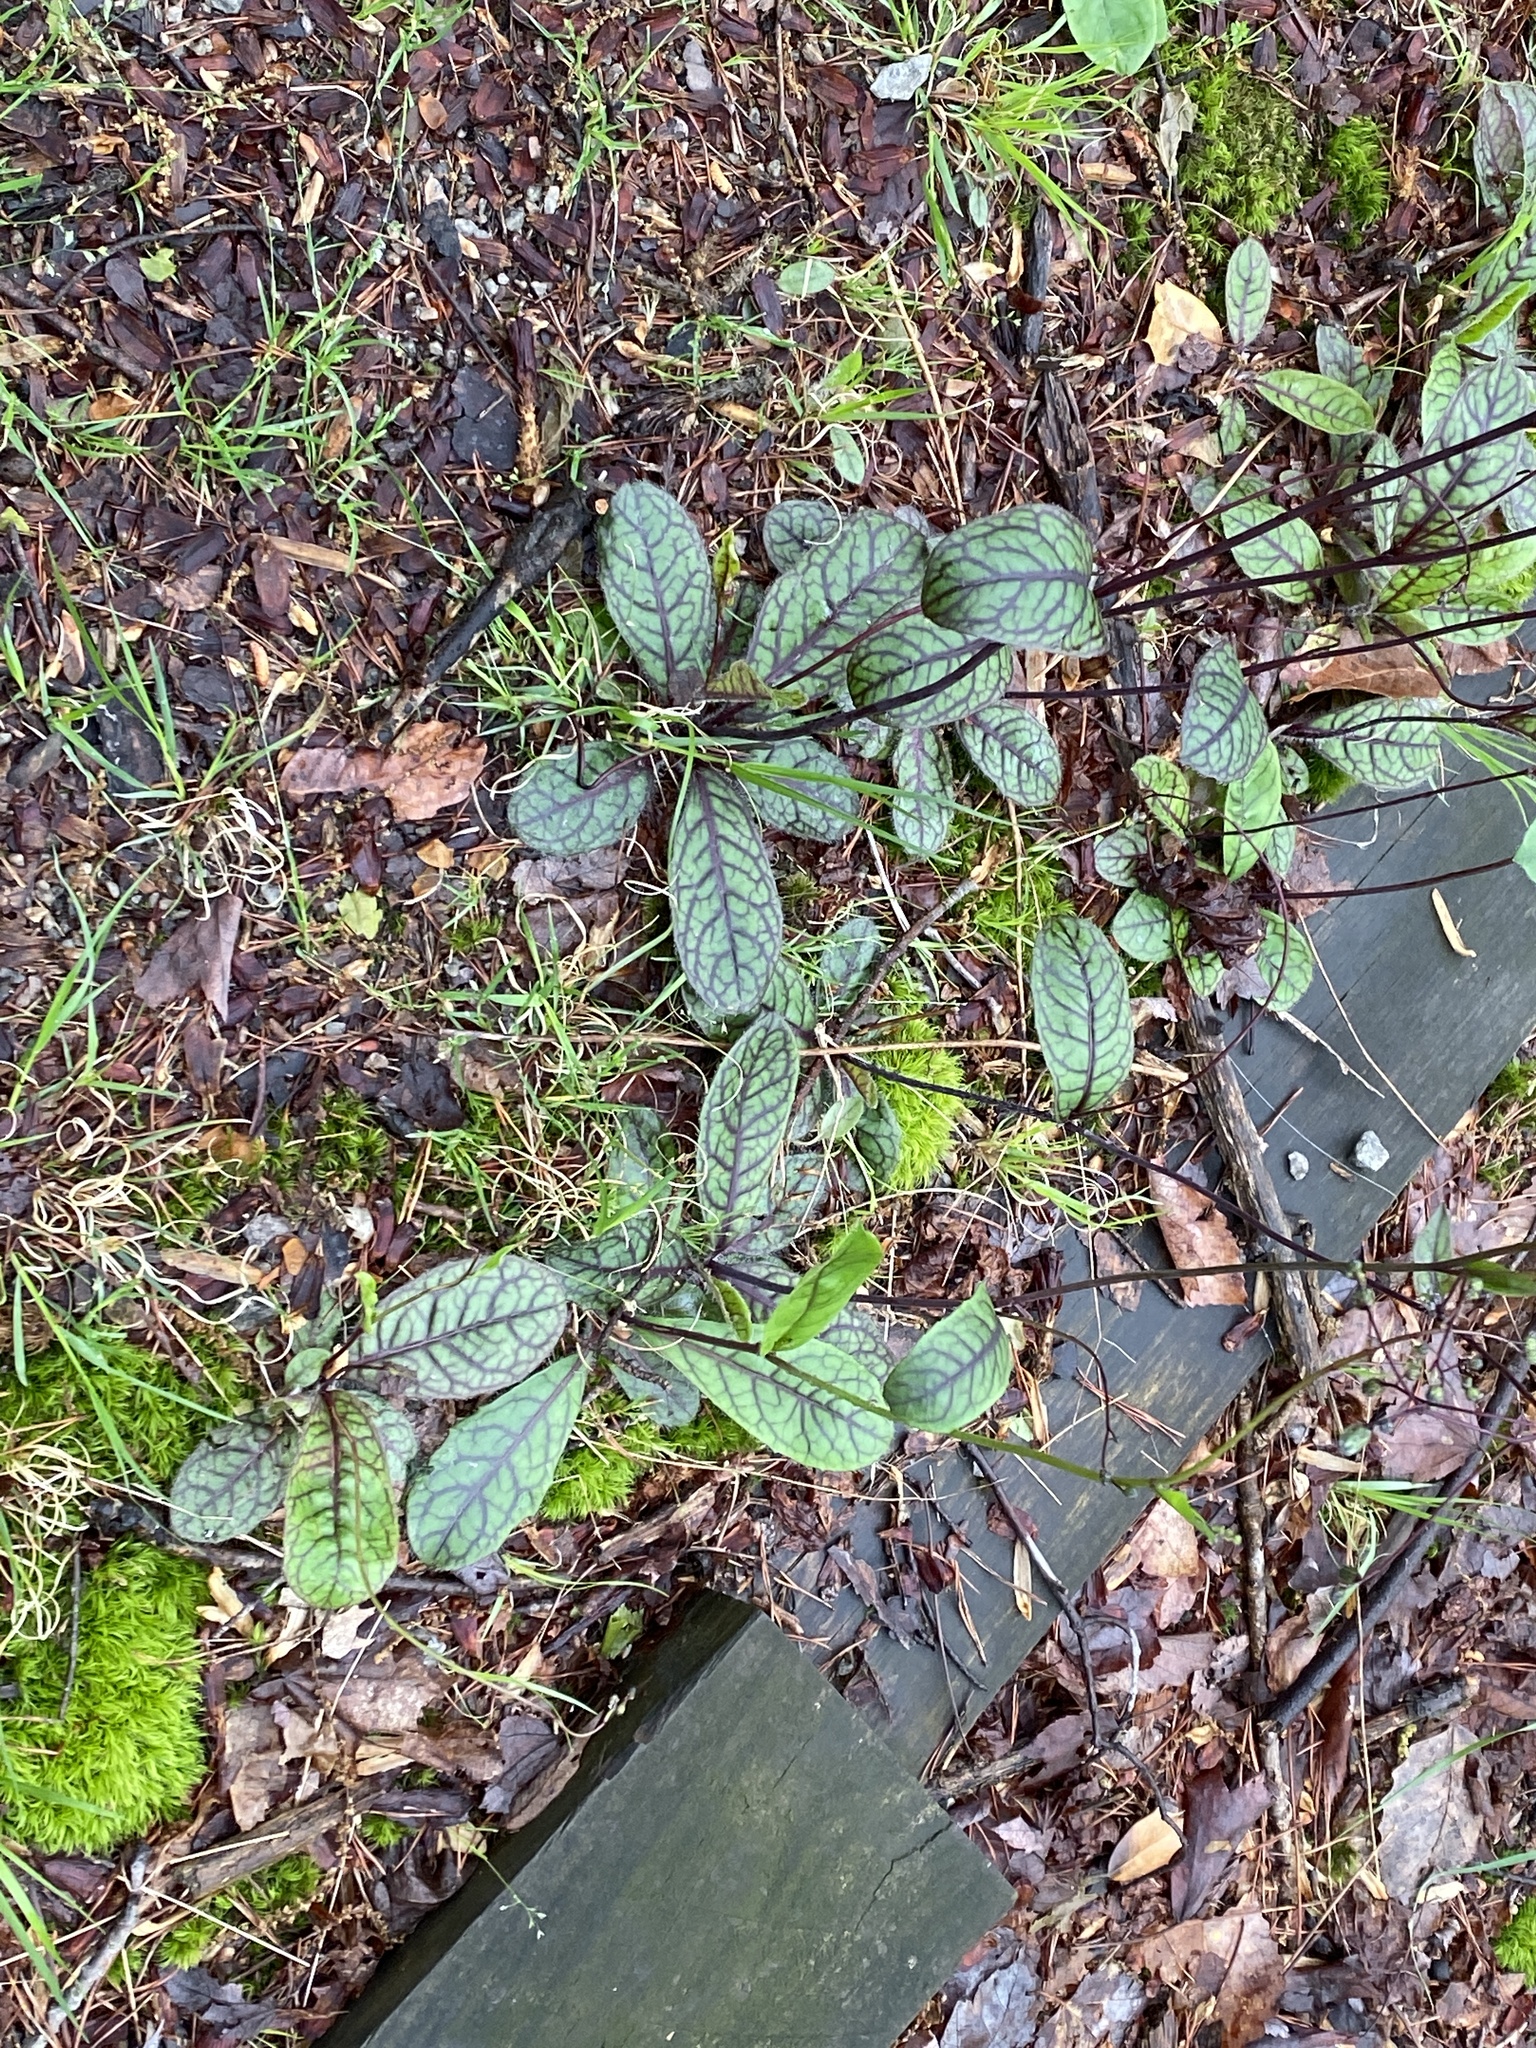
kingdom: Plantae
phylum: Tracheophyta
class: Magnoliopsida
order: Asterales
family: Asteraceae
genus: Hieracium
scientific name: Hieracium venosum
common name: Rattlesnake hawkweed
